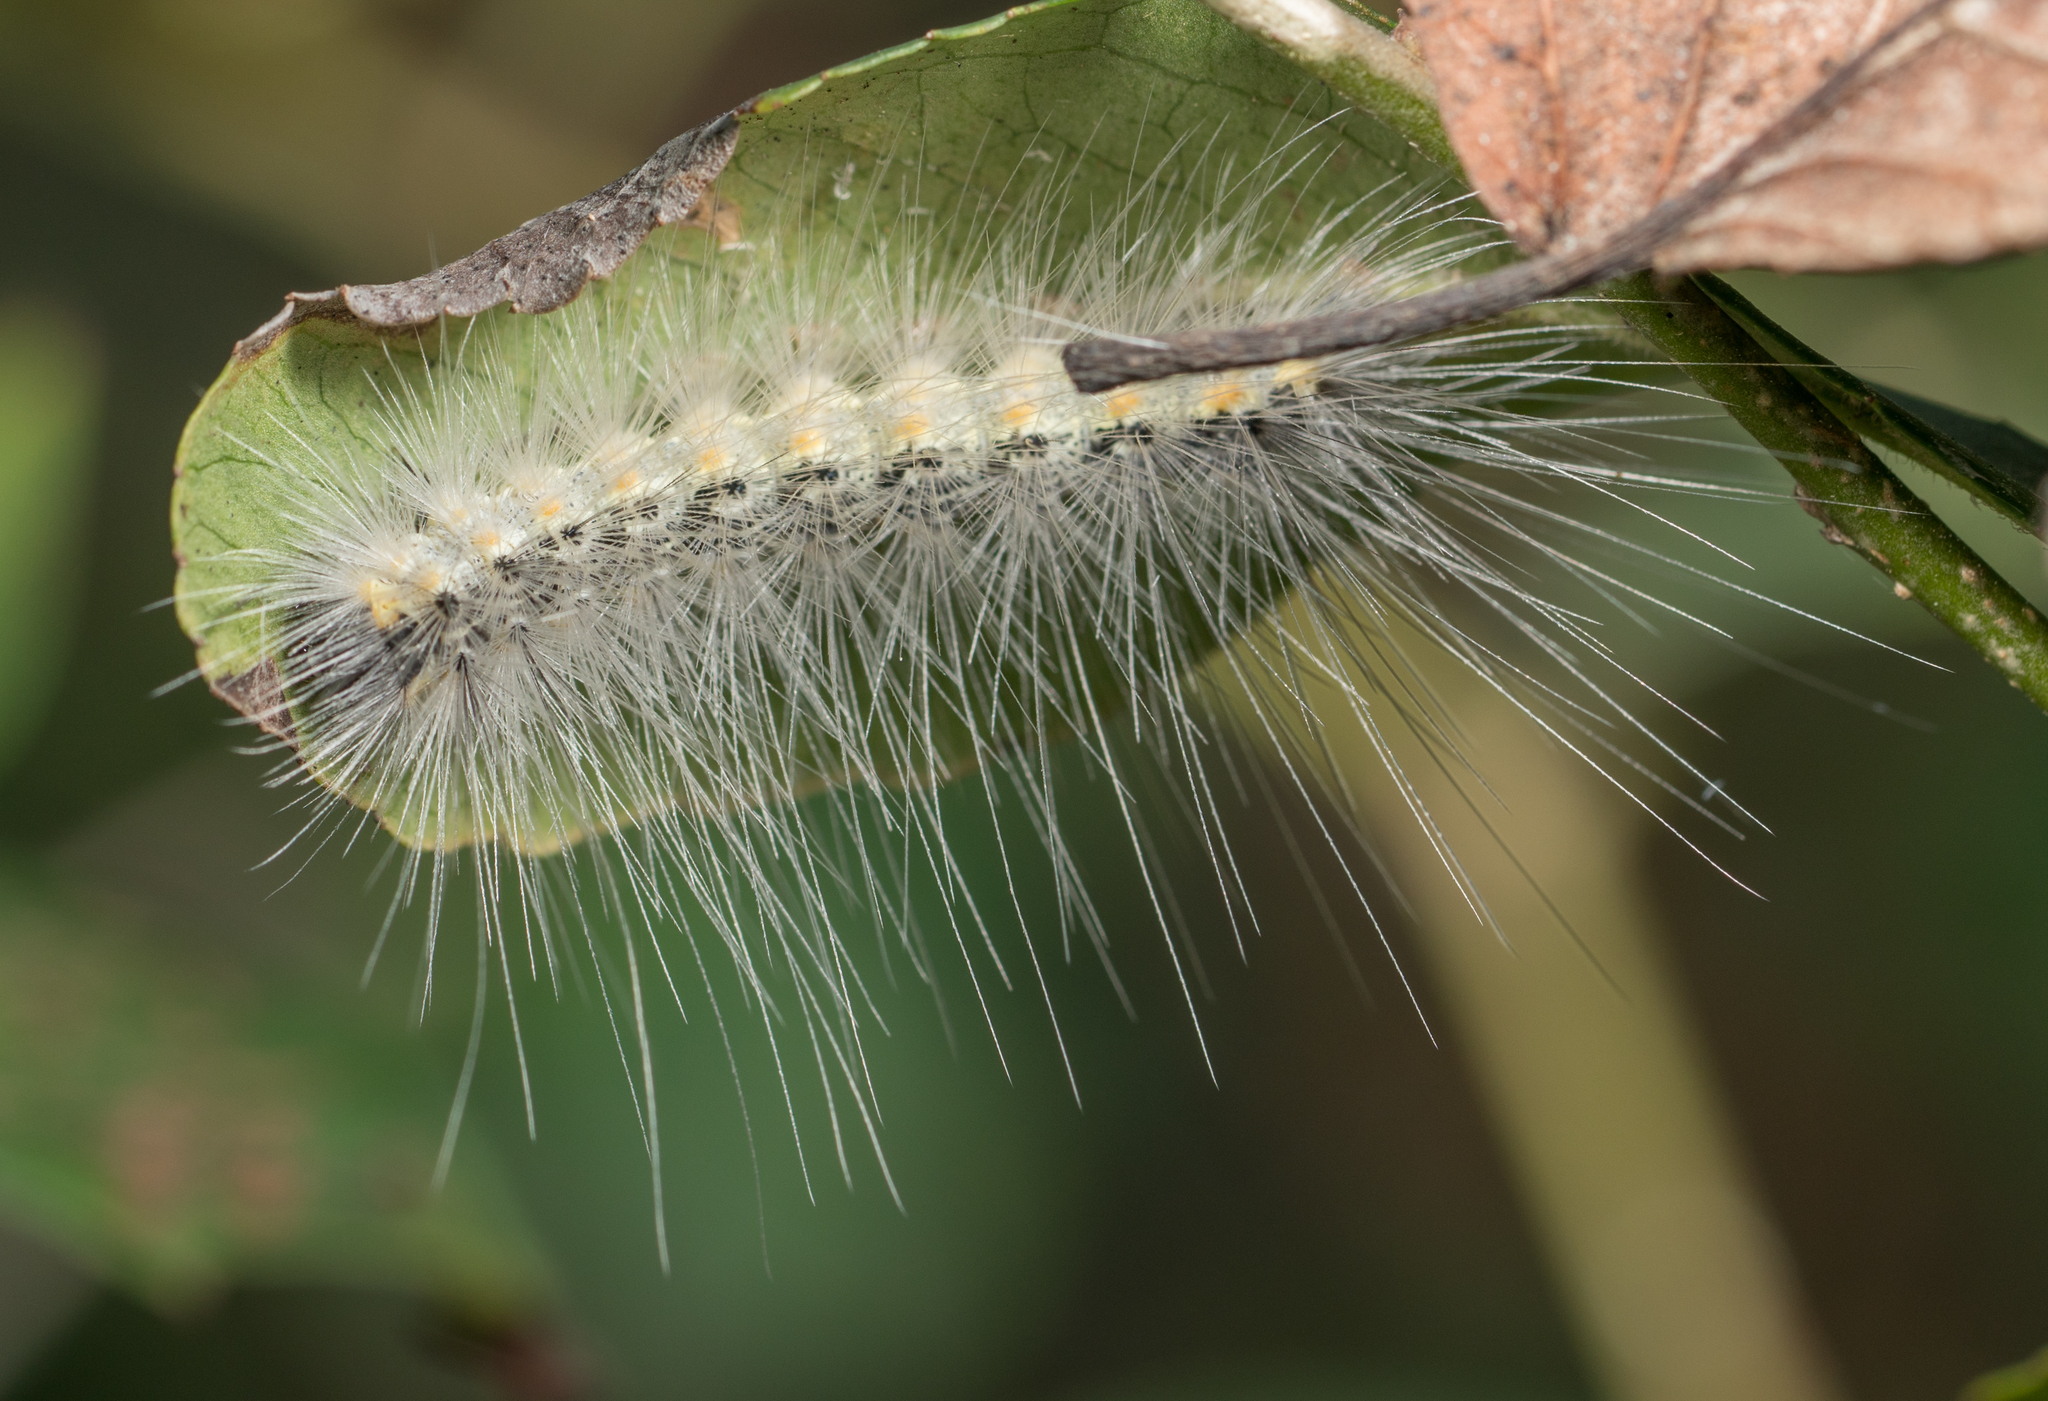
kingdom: Animalia
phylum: Arthropoda
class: Insecta
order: Lepidoptera
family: Erebidae
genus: Hyphantria
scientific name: Hyphantria cunea
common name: American white moth
